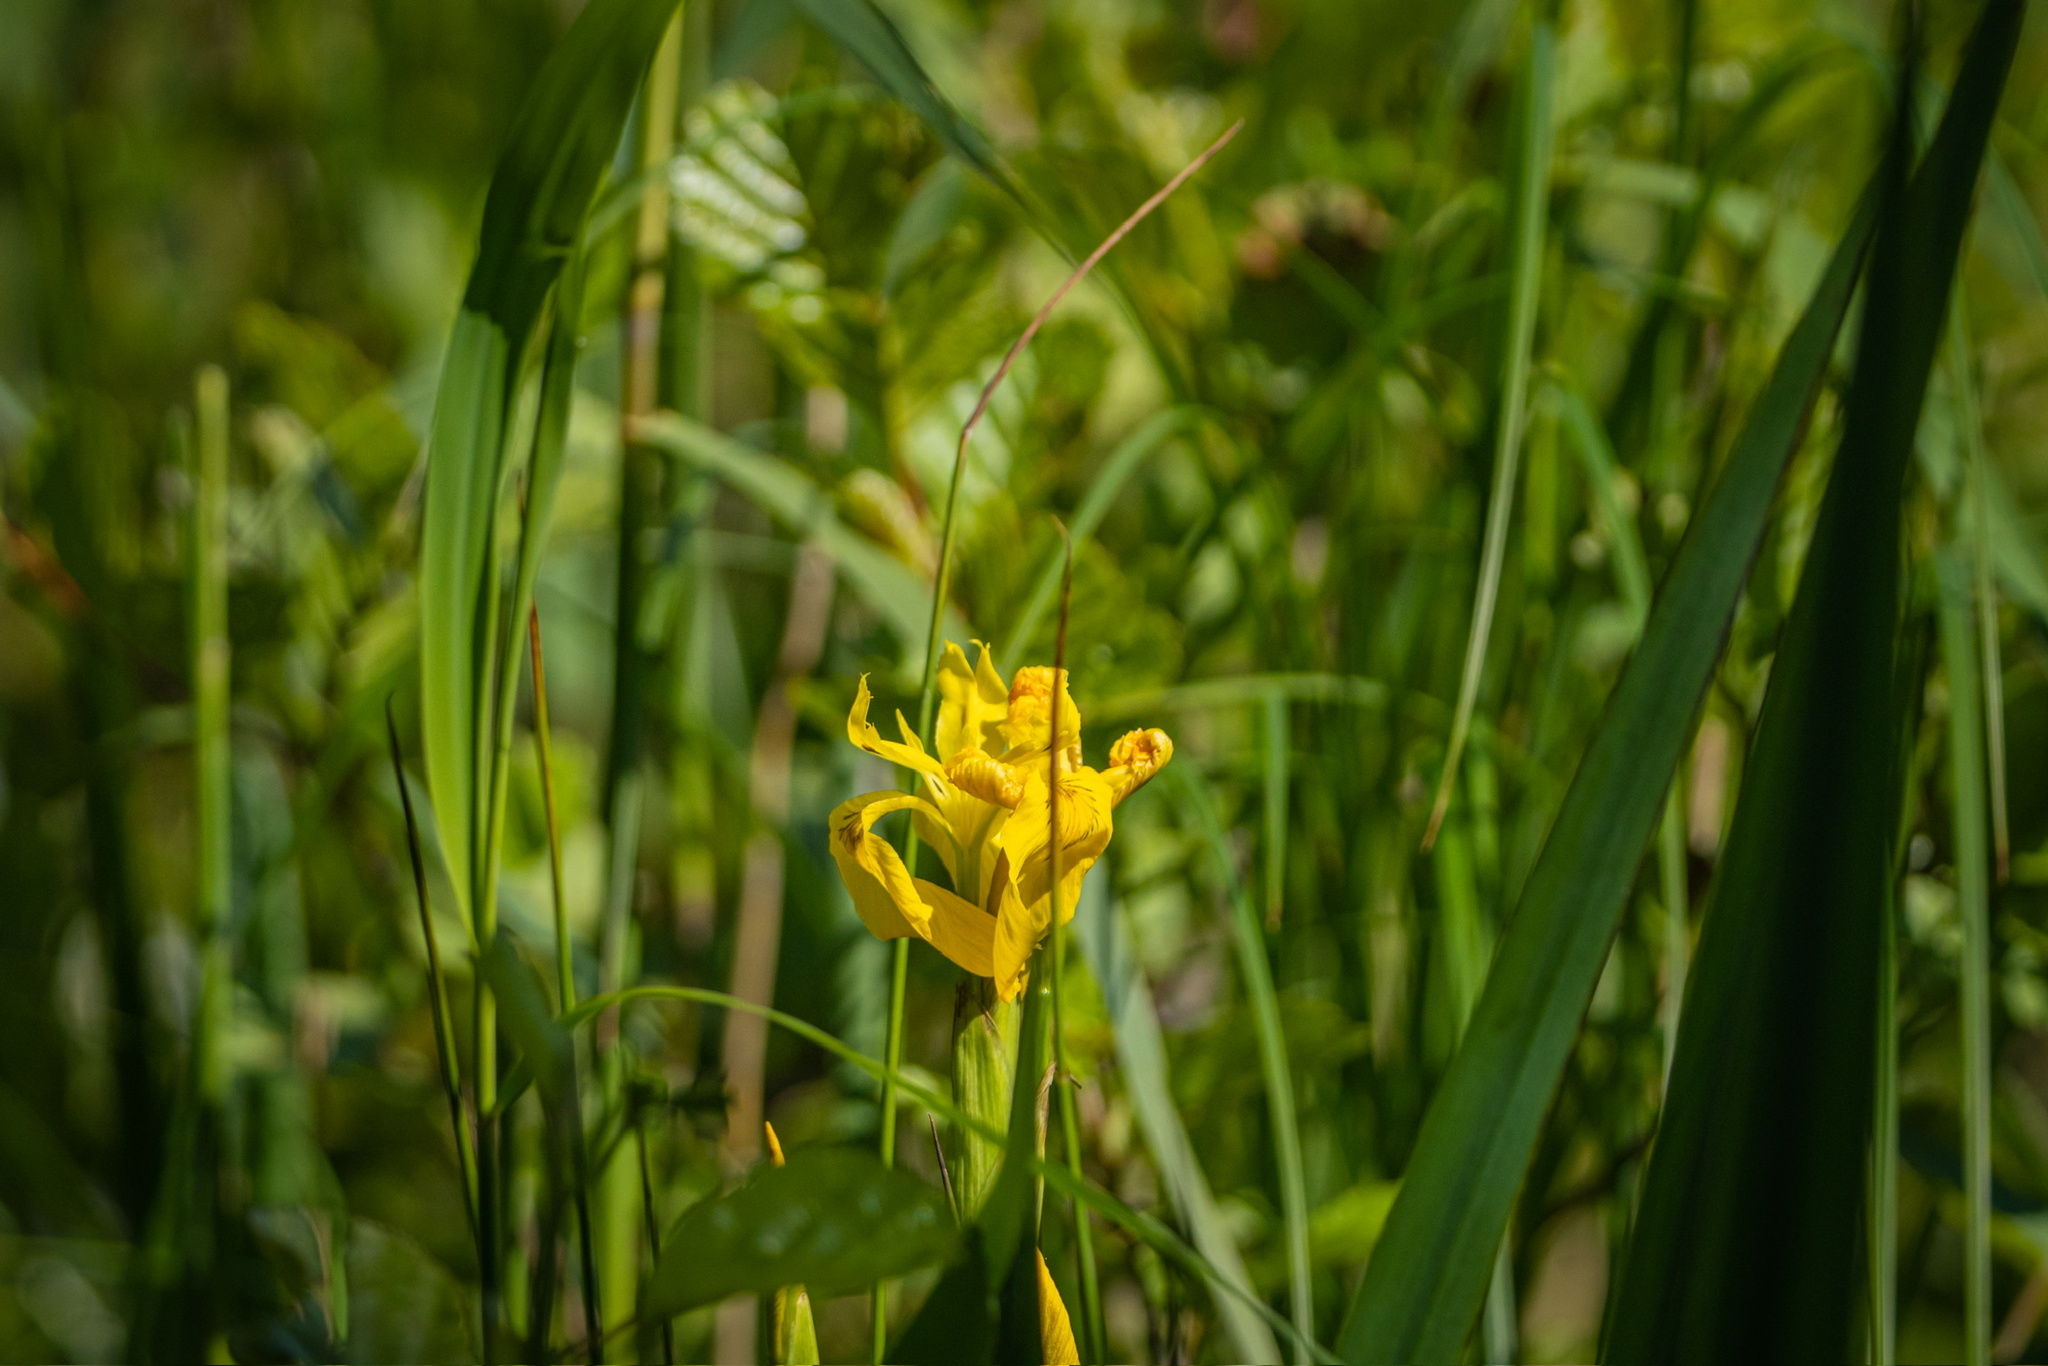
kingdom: Plantae
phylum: Tracheophyta
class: Liliopsida
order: Asparagales
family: Iridaceae
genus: Iris
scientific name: Iris pseudacorus
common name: Yellow flag
